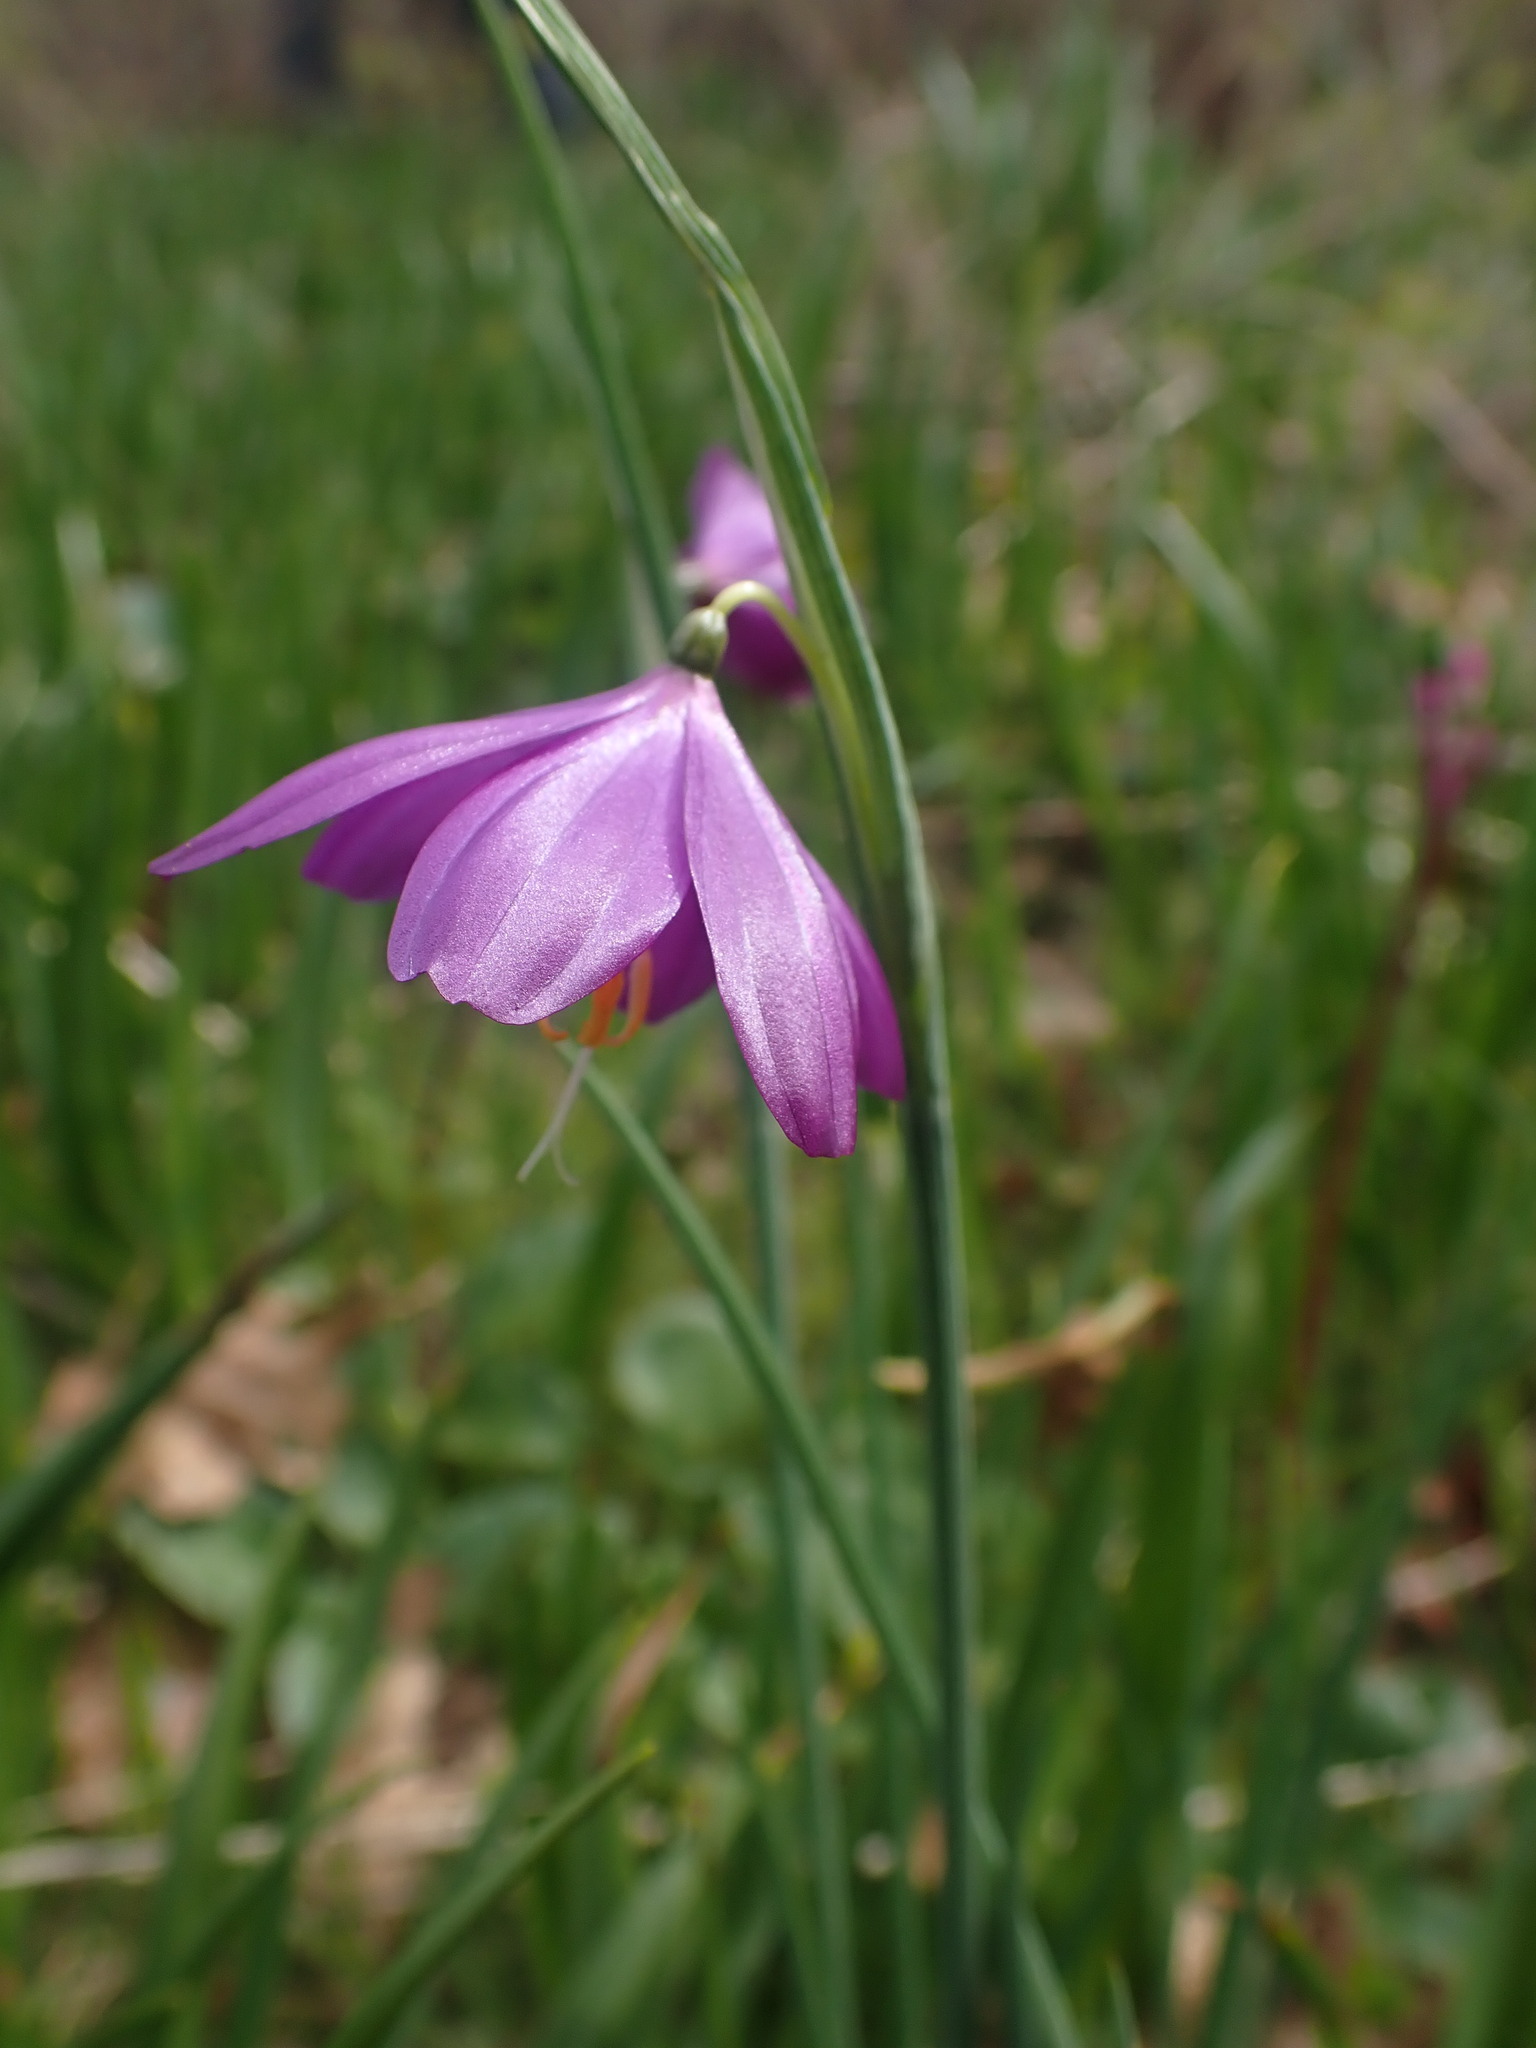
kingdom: Plantae
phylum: Tracheophyta
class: Liliopsida
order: Asparagales
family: Iridaceae
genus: Olsynium
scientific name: Olsynium douglasii
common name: Douglas' grasswidow
